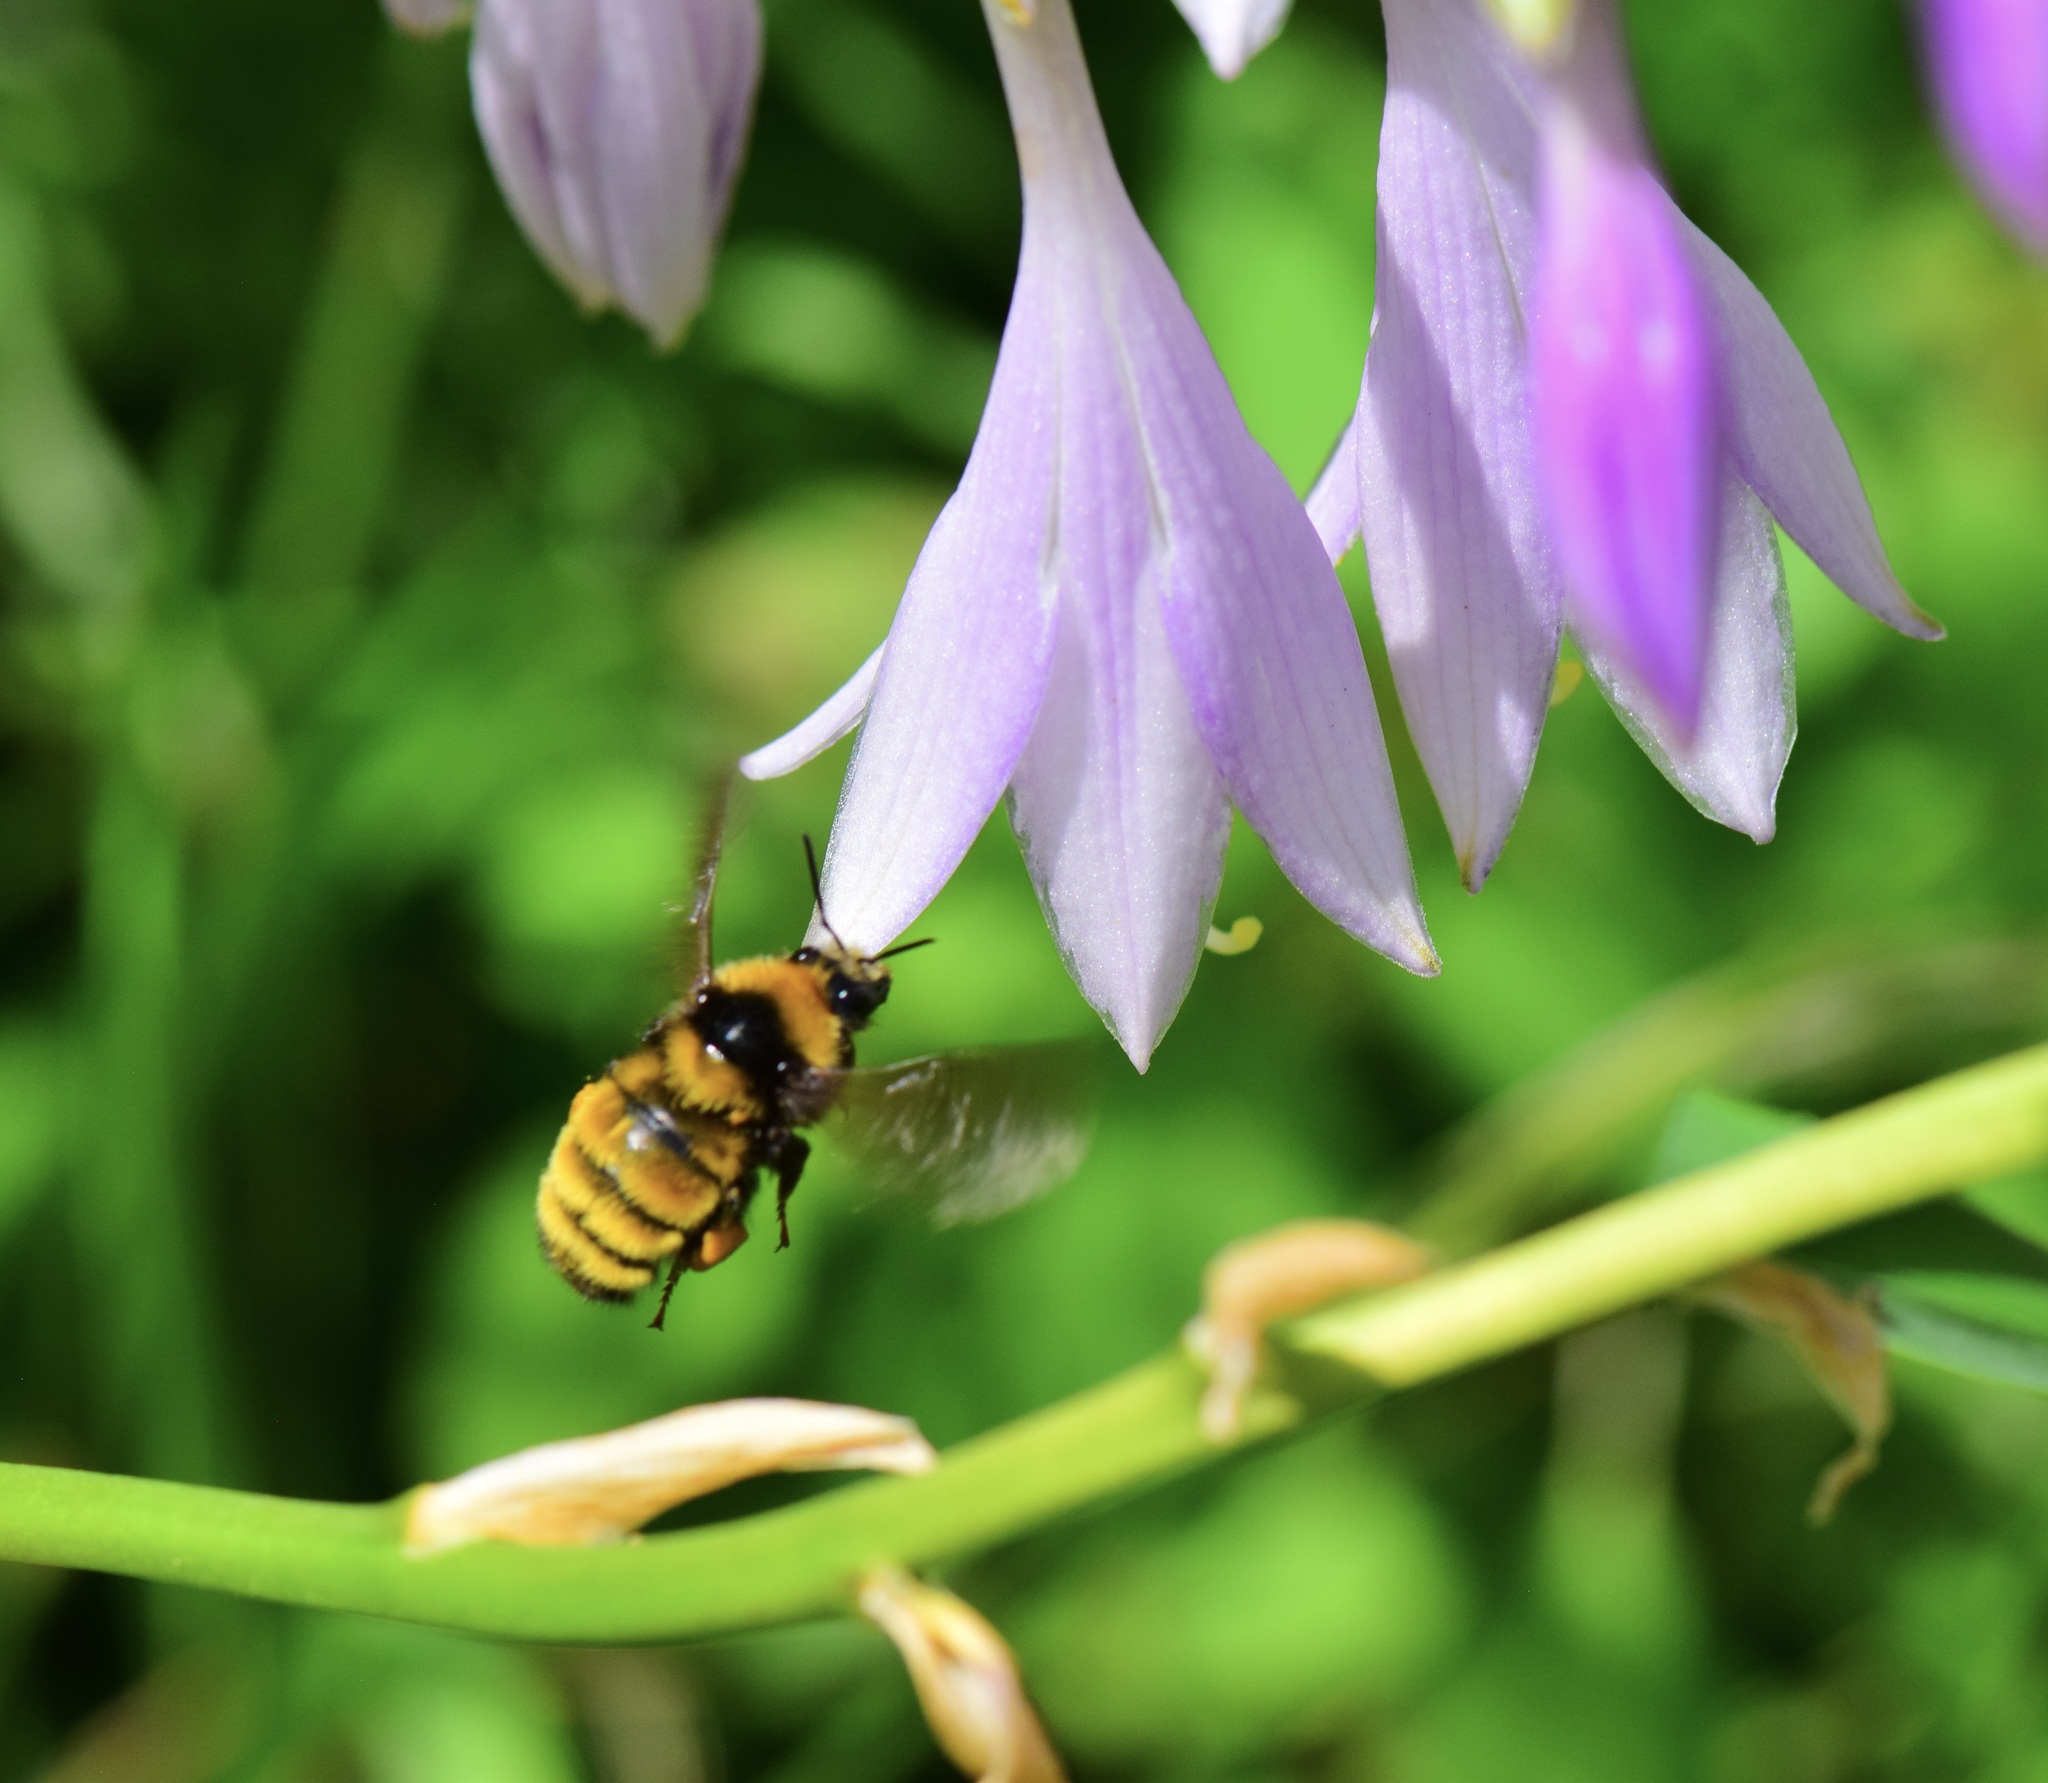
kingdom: Animalia
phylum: Arthropoda
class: Insecta
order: Hymenoptera
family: Apidae
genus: Bombus
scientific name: Bombus borealis
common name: Northern amber bumble bee
